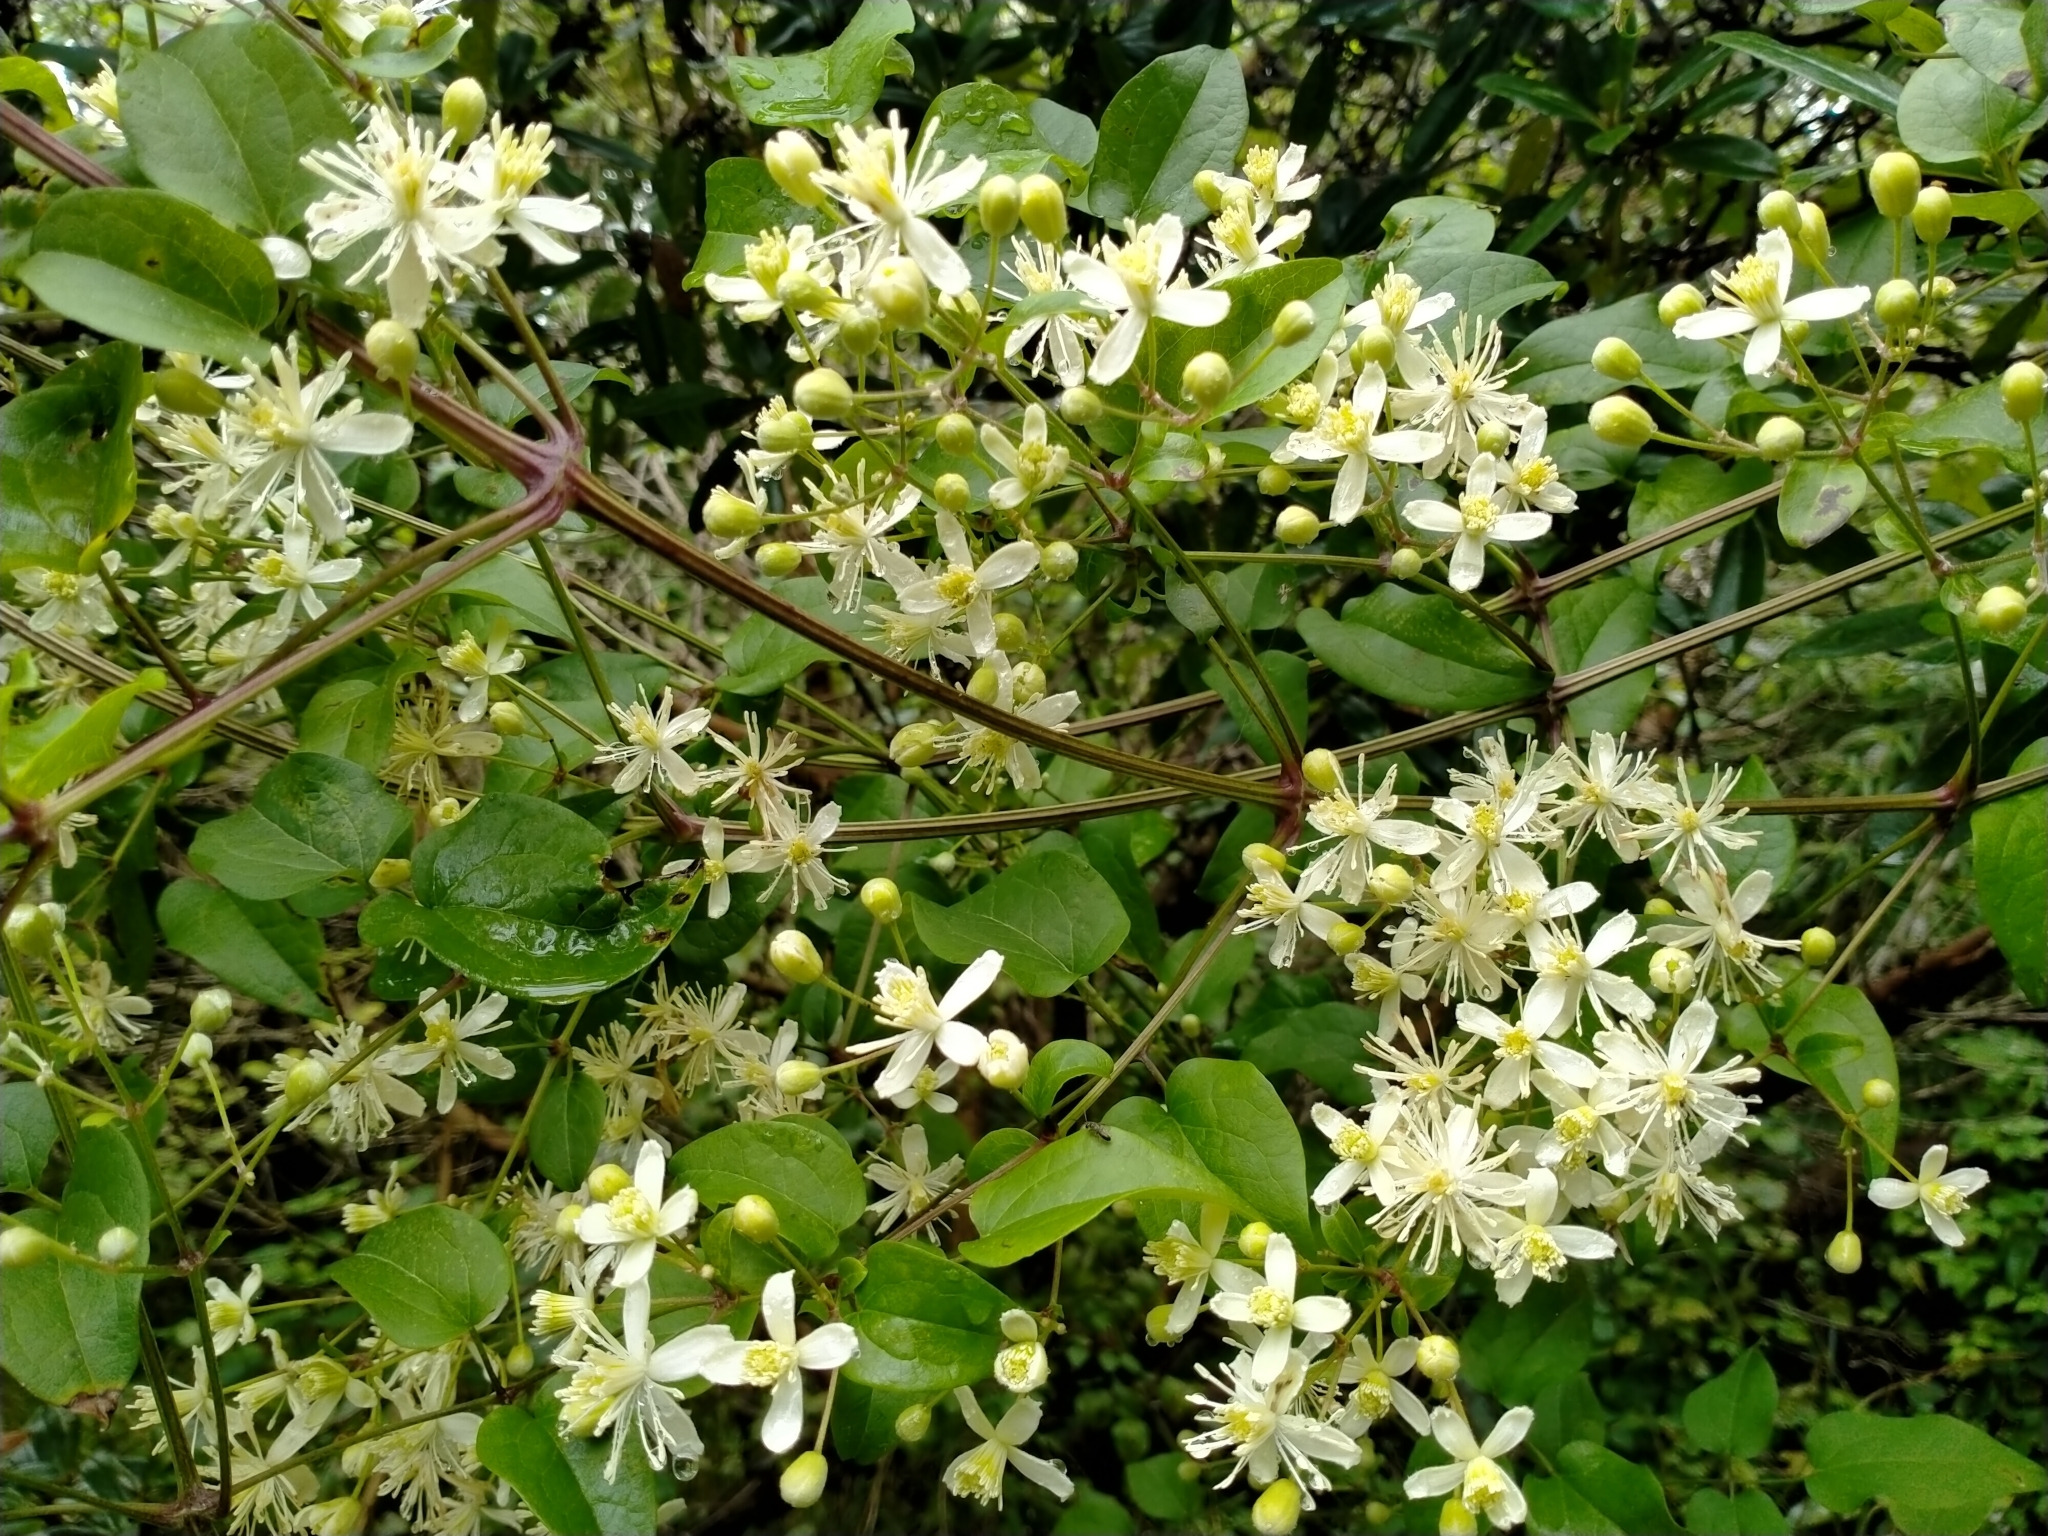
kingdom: Plantae
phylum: Tracheophyta
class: Magnoliopsida
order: Ranunculales
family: Ranunculaceae
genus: Clematis
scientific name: Clematis vitalba
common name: Evergreen clematis
